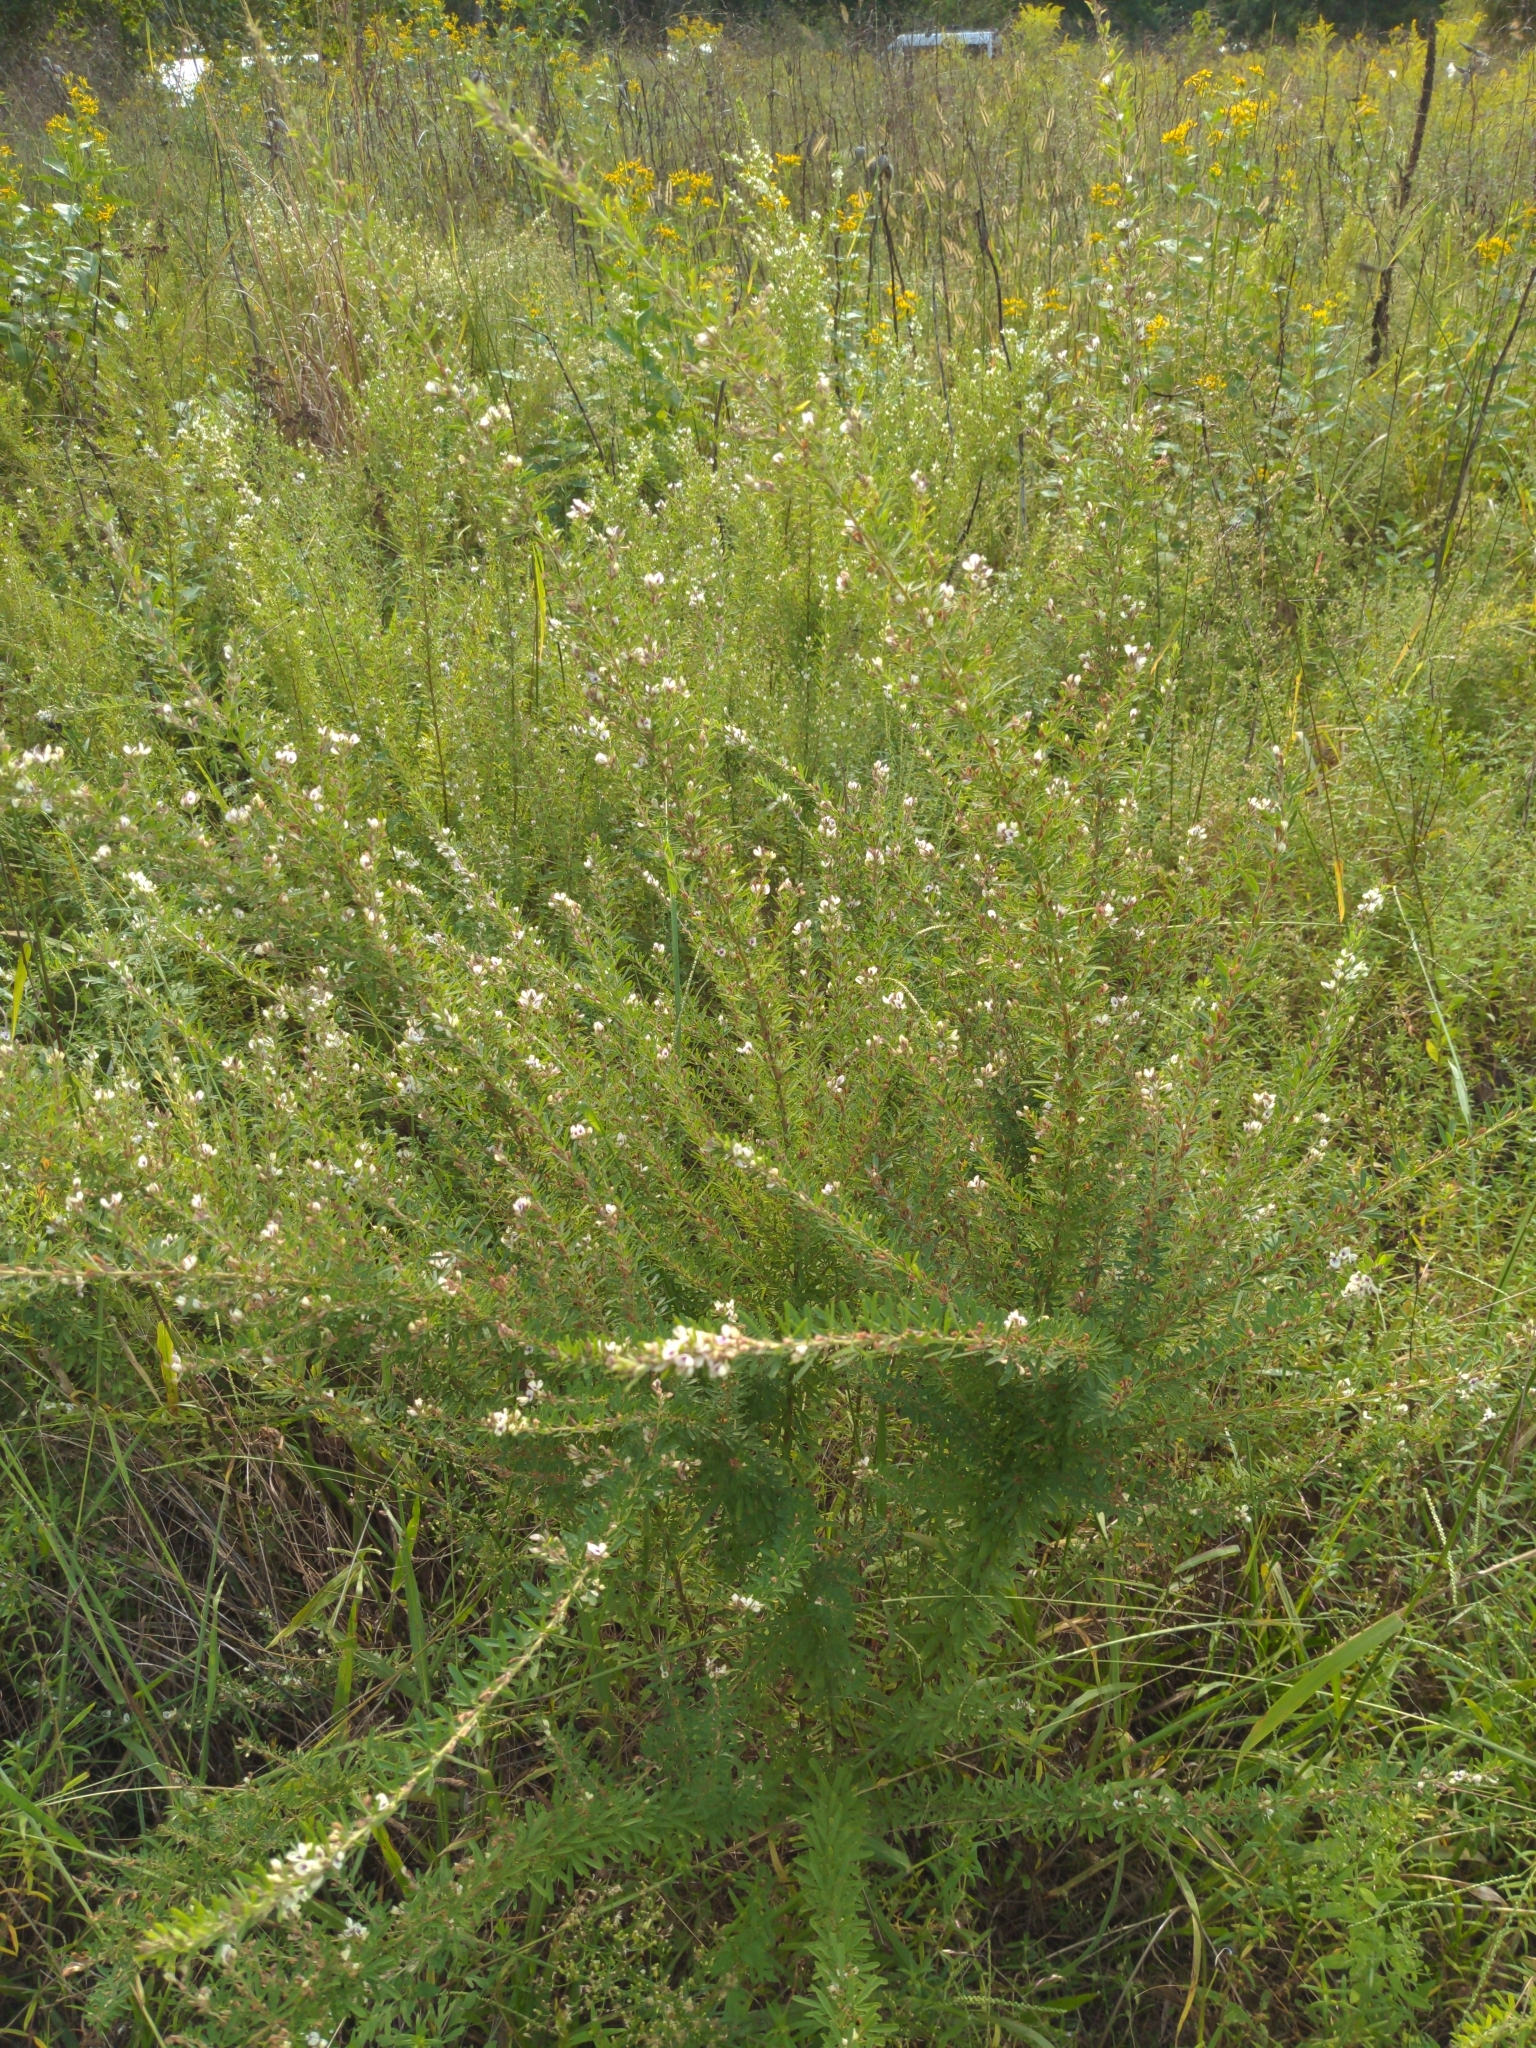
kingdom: Plantae
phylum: Tracheophyta
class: Magnoliopsida
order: Fabales
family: Fabaceae
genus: Lespedeza
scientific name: Lespedeza cuneata
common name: Chinese bush-clover
